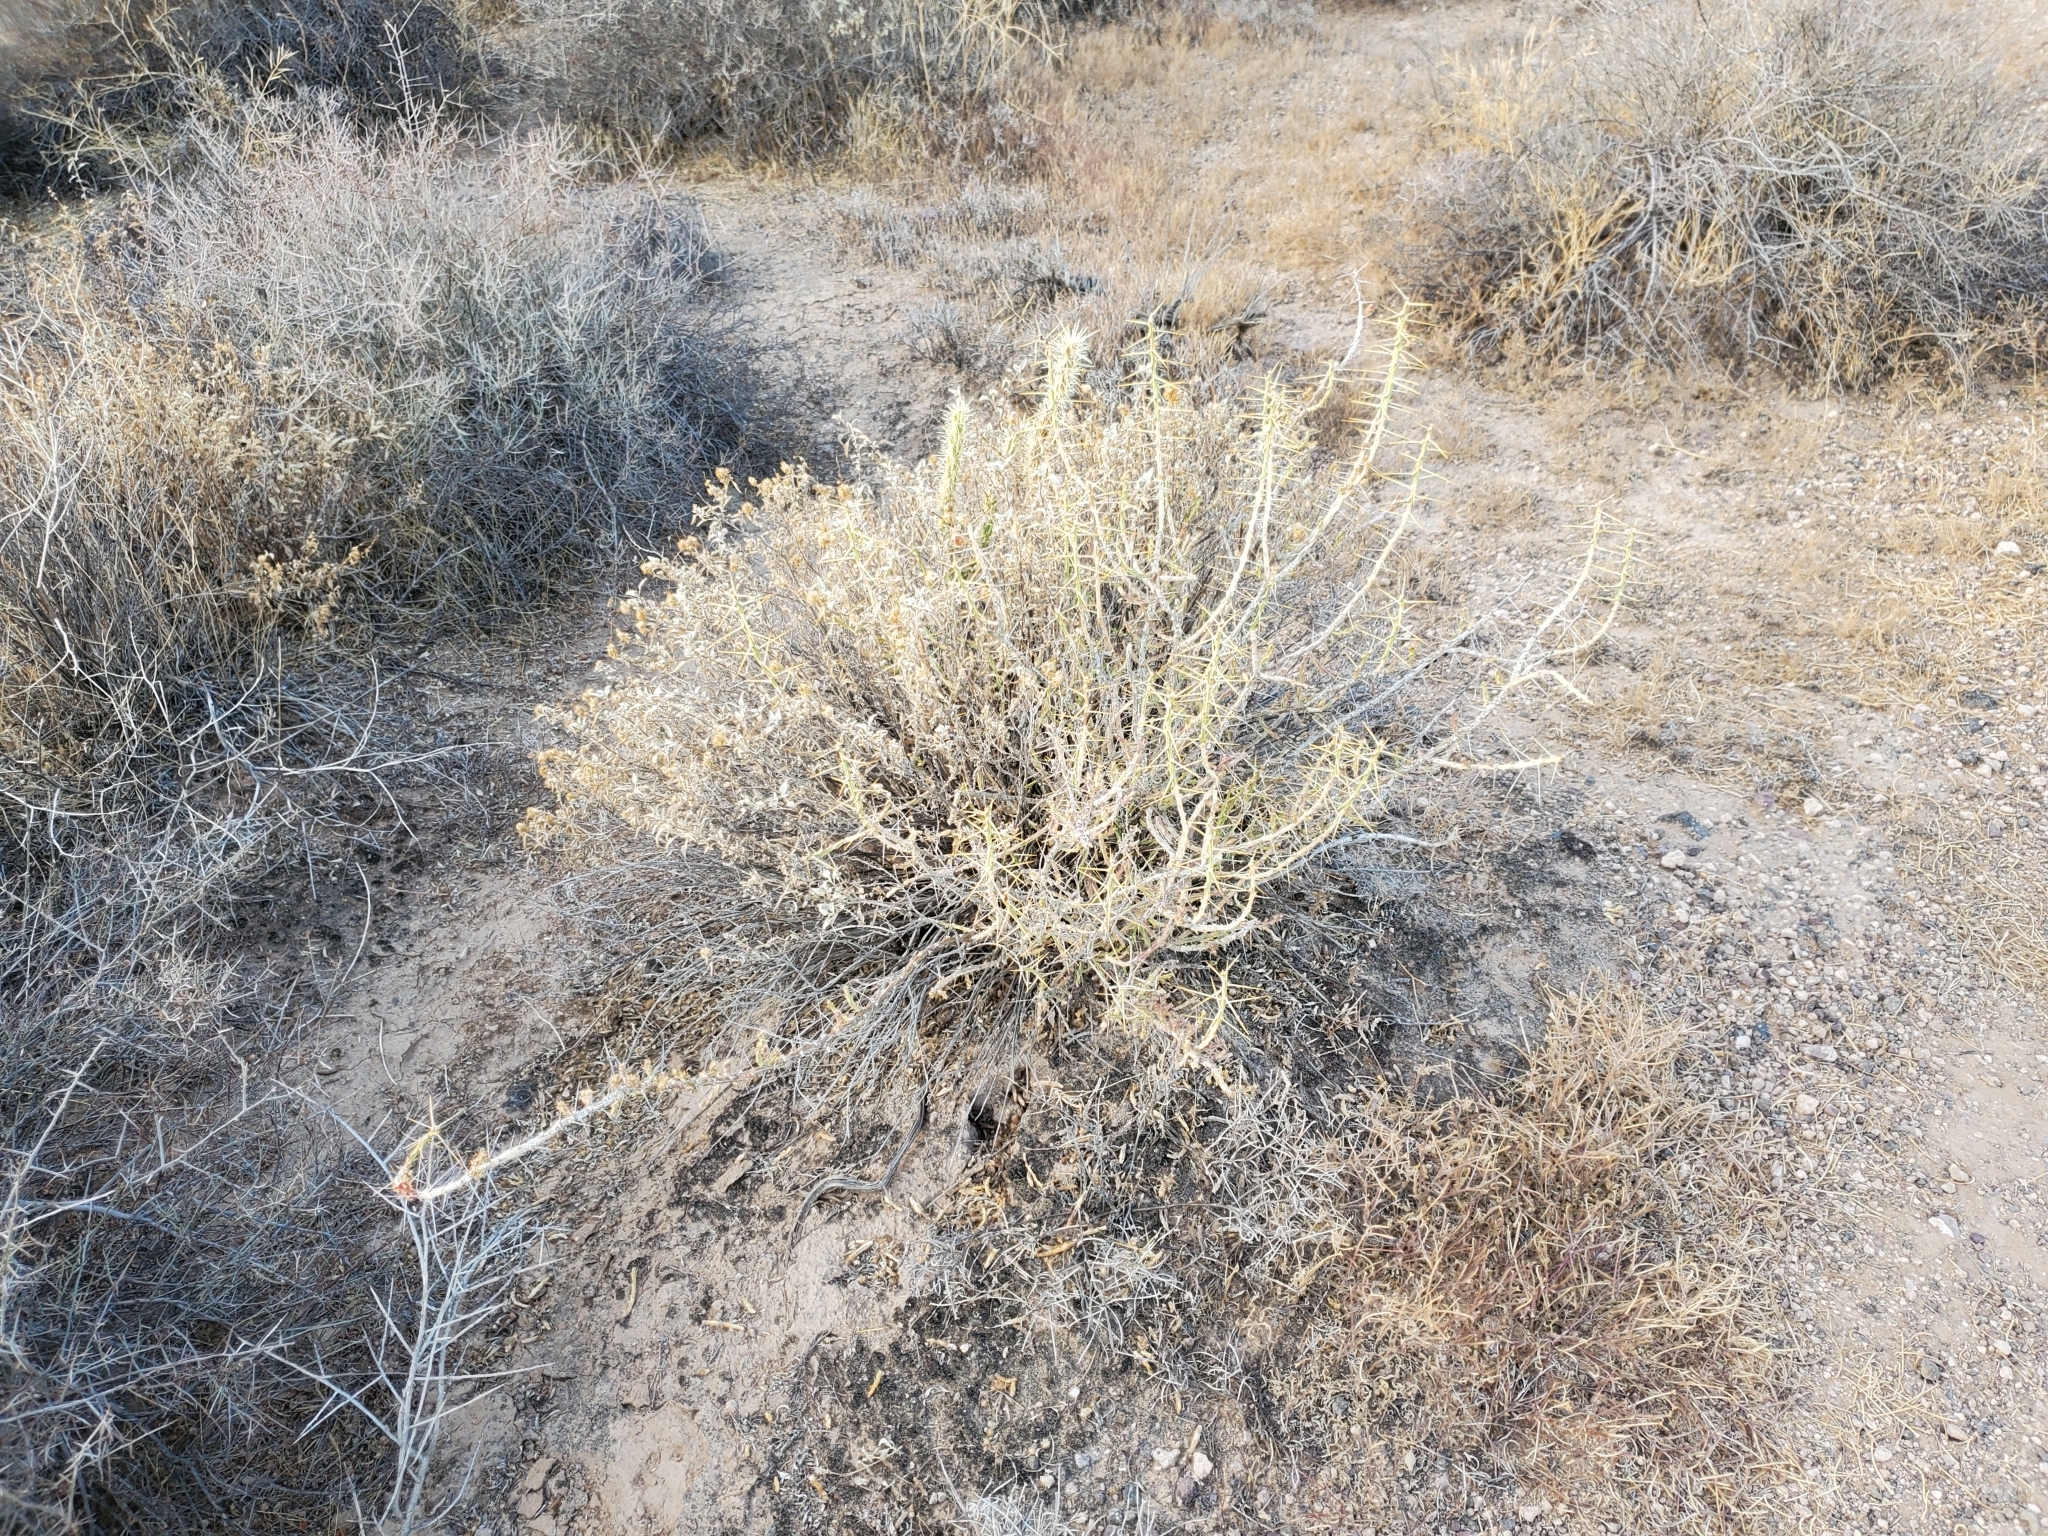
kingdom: Plantae
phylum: Tracheophyta
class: Magnoliopsida
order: Caryophyllales
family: Cactaceae
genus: Cylindropuntia
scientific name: Cylindropuntia leptocaulis
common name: Christmas cactus
